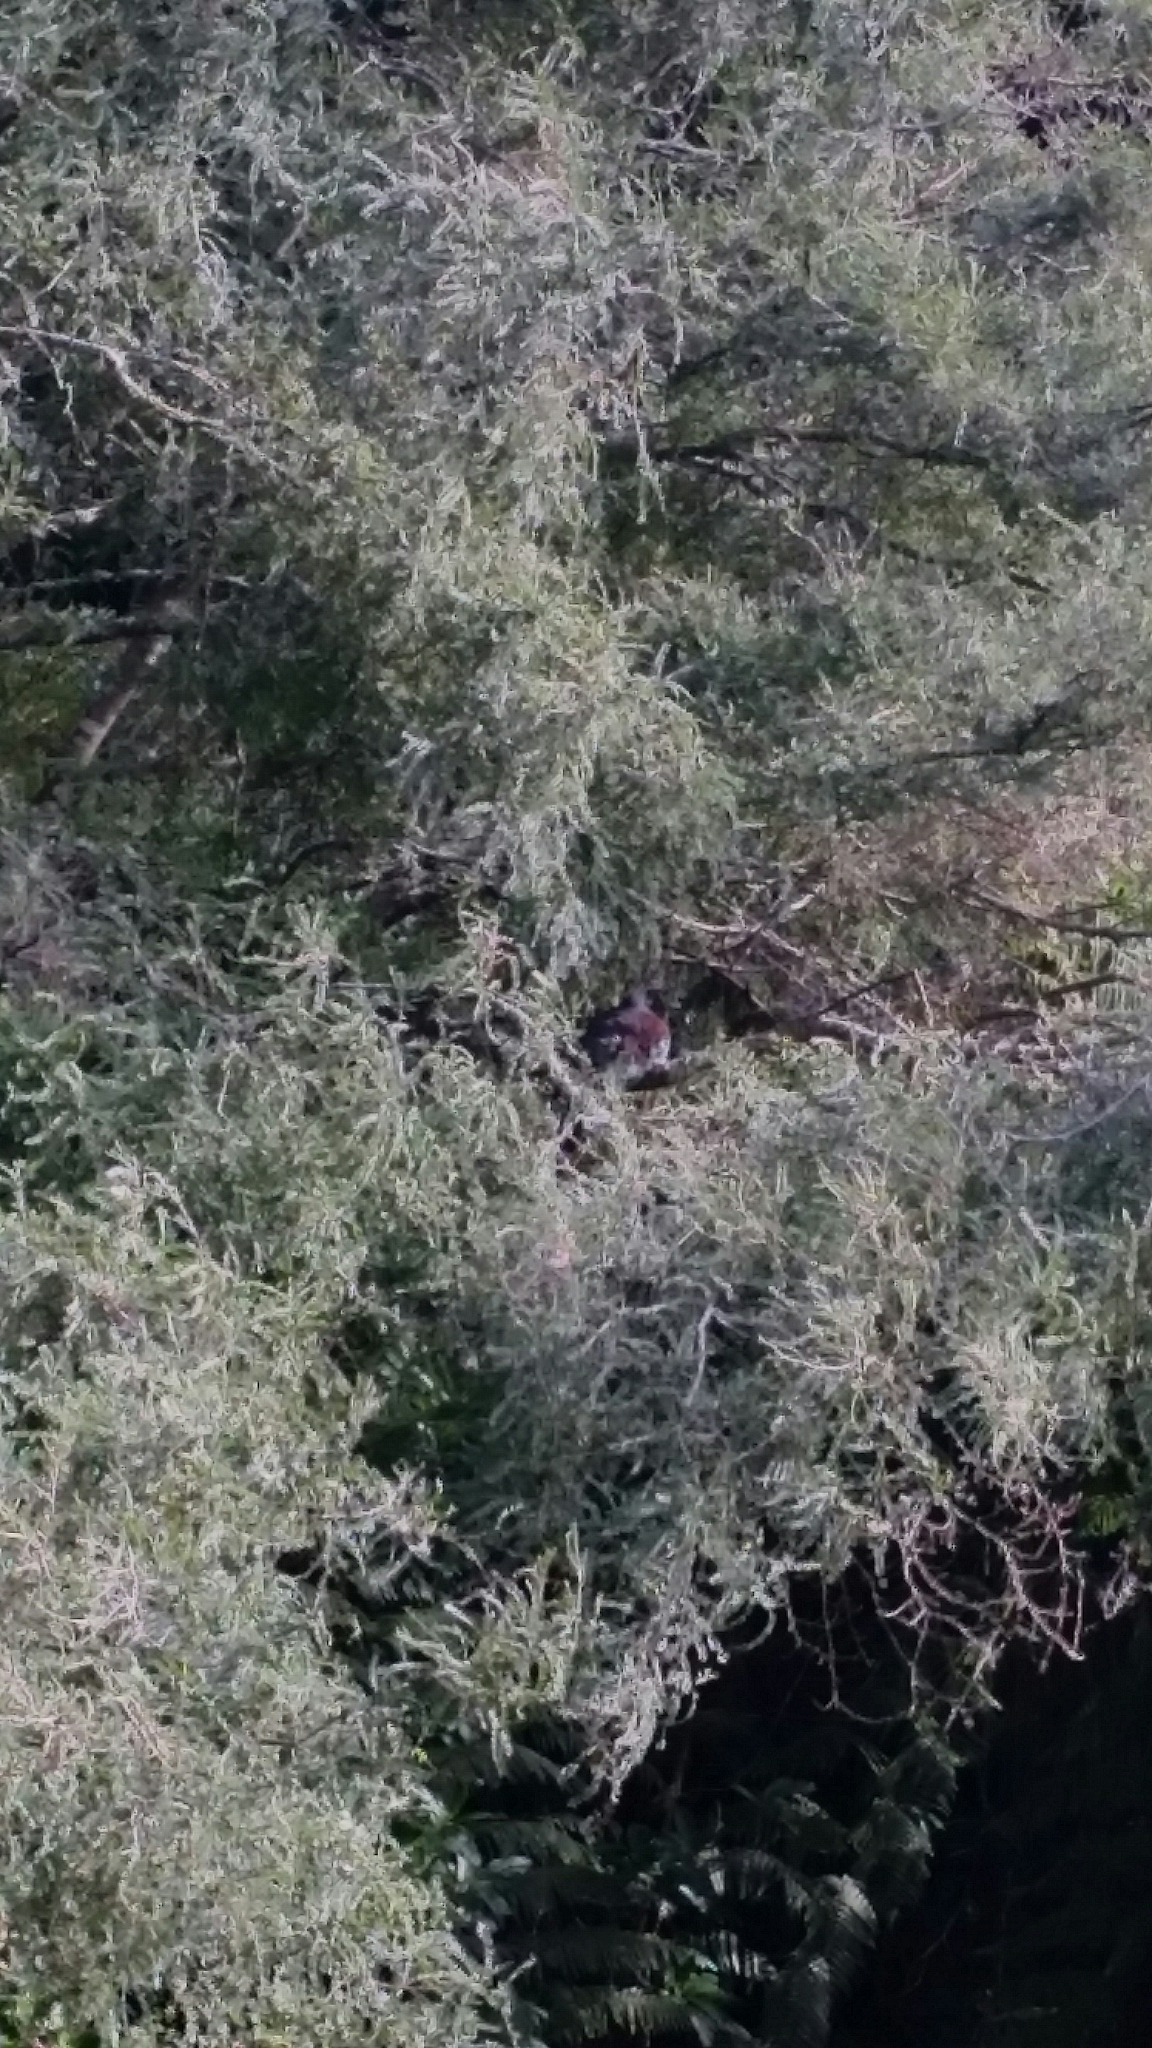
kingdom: Animalia
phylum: Chordata
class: Aves
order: Columbiformes
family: Columbidae
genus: Hemiphaga
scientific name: Hemiphaga novaeseelandiae
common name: New zealand pigeon
